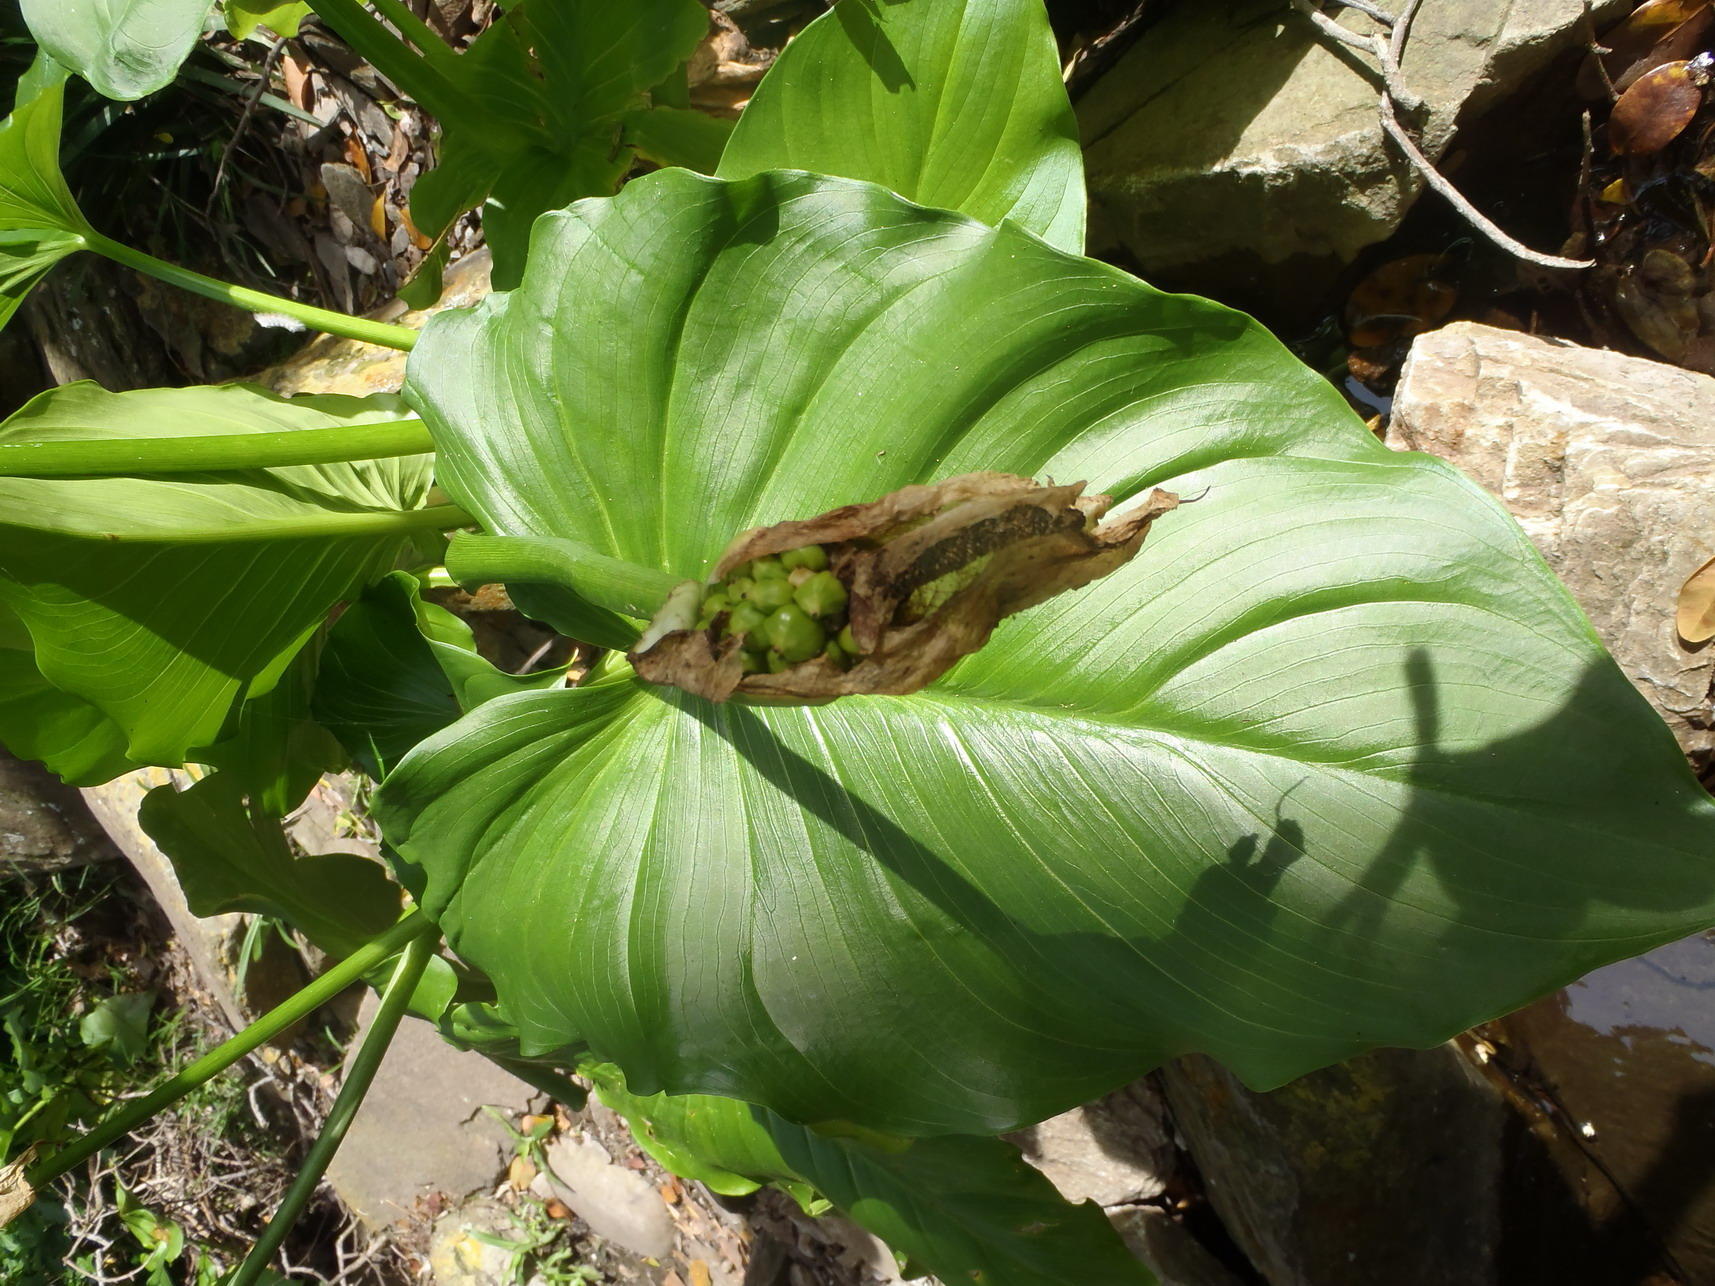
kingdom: Plantae
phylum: Tracheophyta
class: Liliopsida
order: Alismatales
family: Araceae
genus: Zantedeschia
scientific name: Zantedeschia aethiopica
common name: Altar-lily
